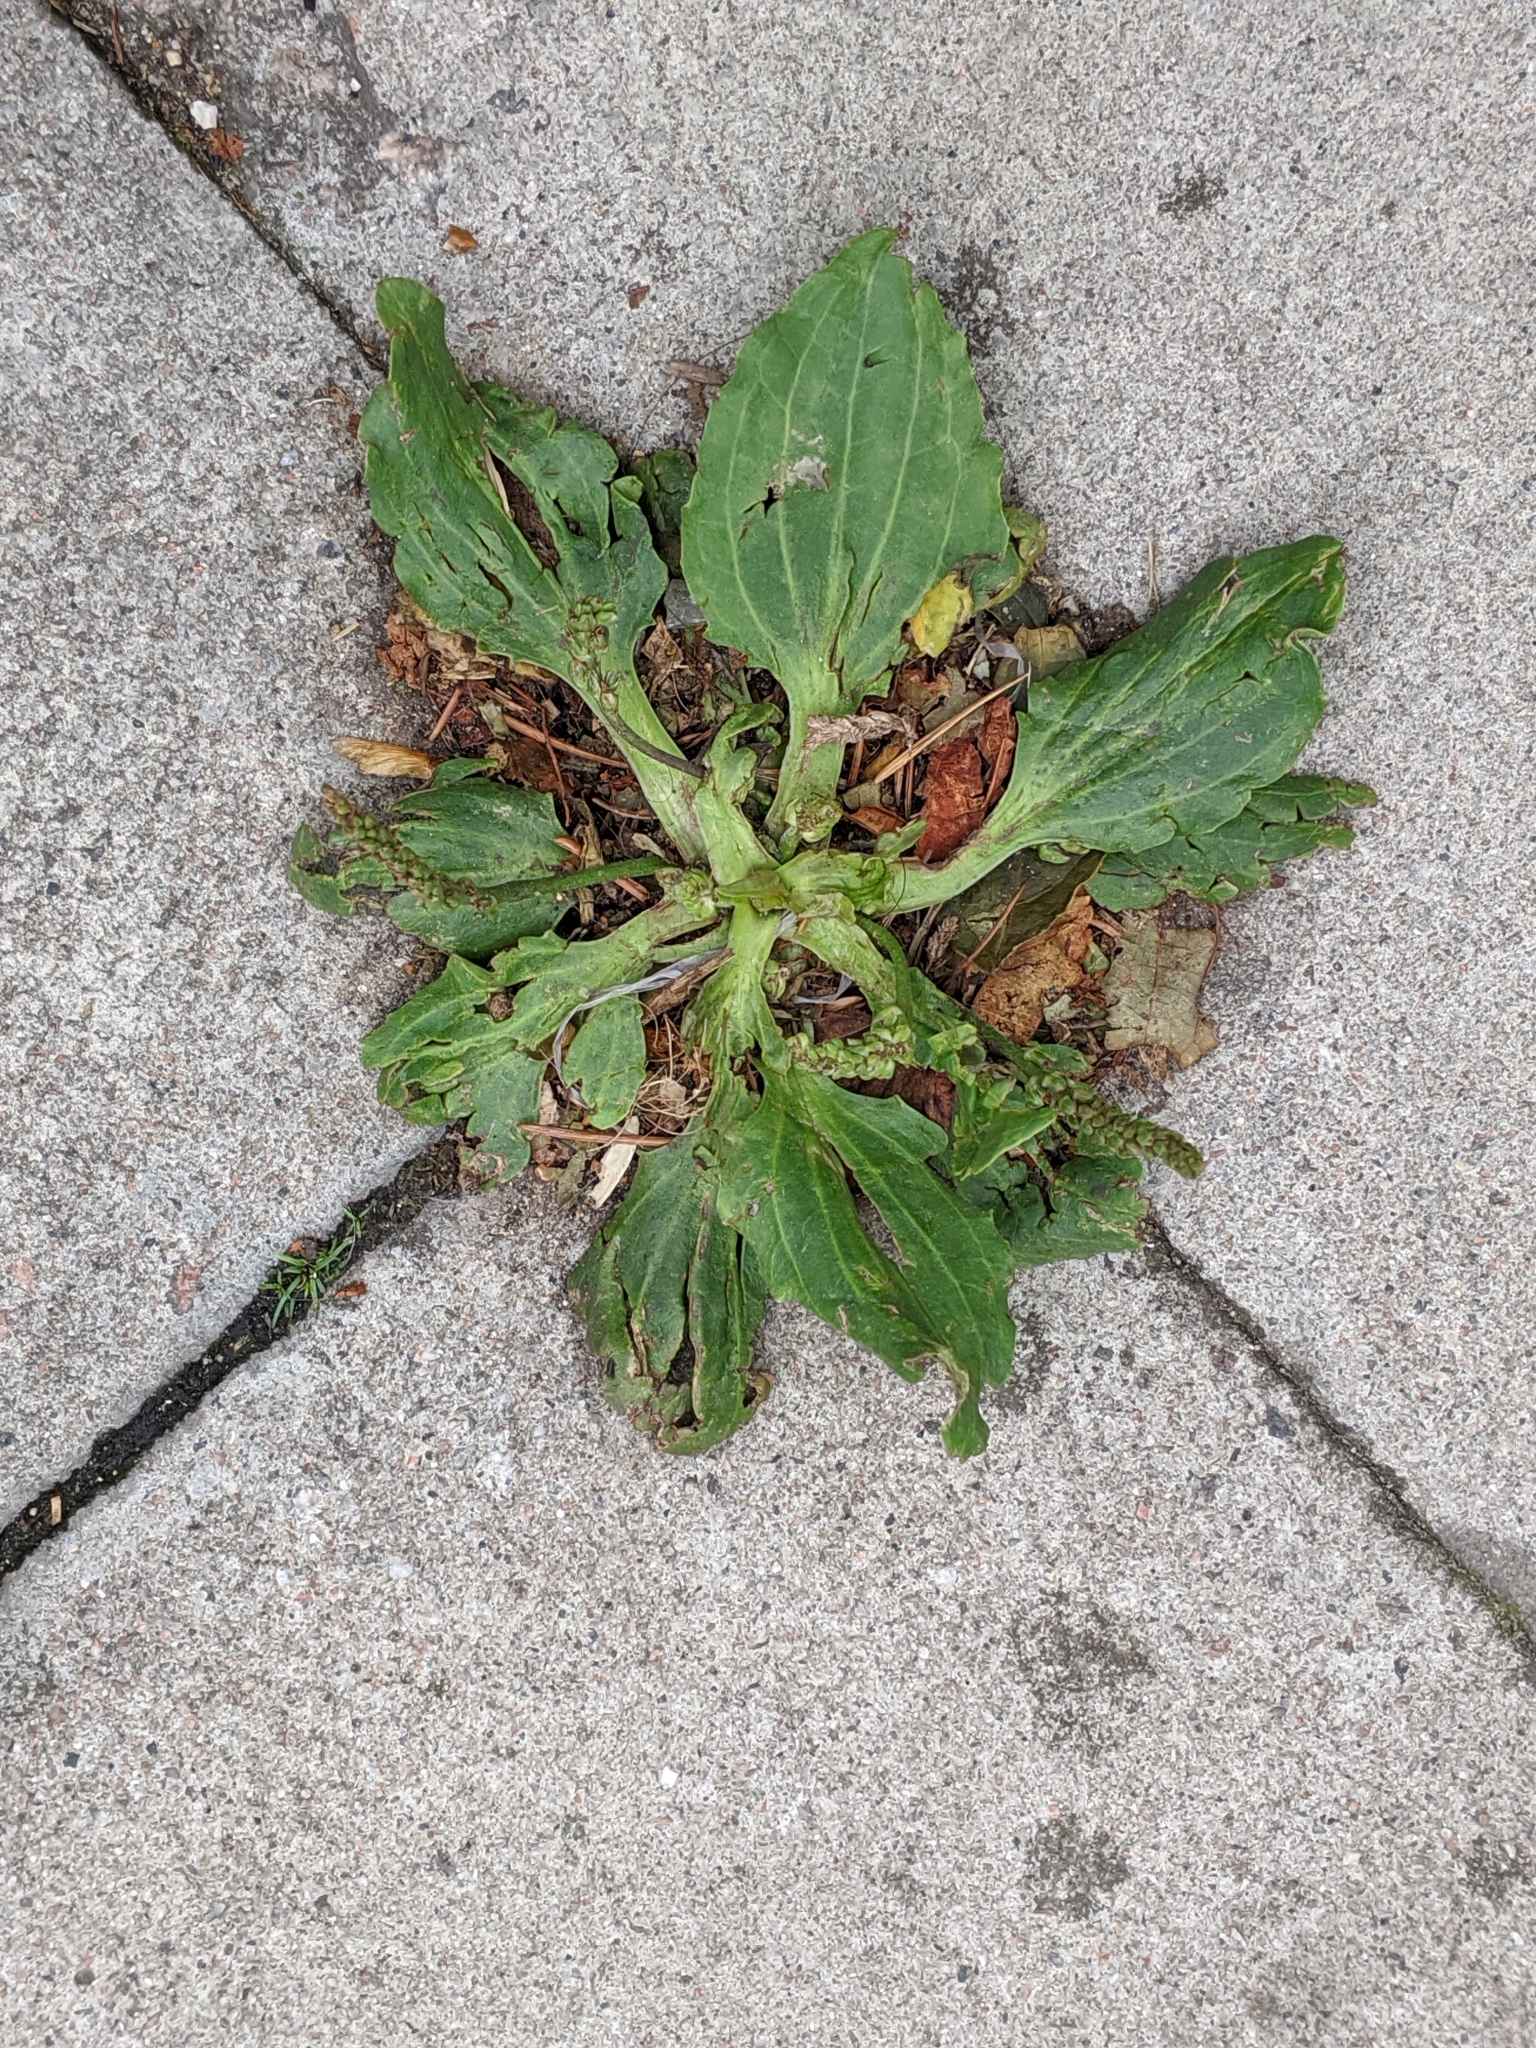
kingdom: Plantae
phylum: Tracheophyta
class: Magnoliopsida
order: Lamiales
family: Plantaginaceae
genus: Plantago
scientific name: Plantago major
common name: Common plantain
